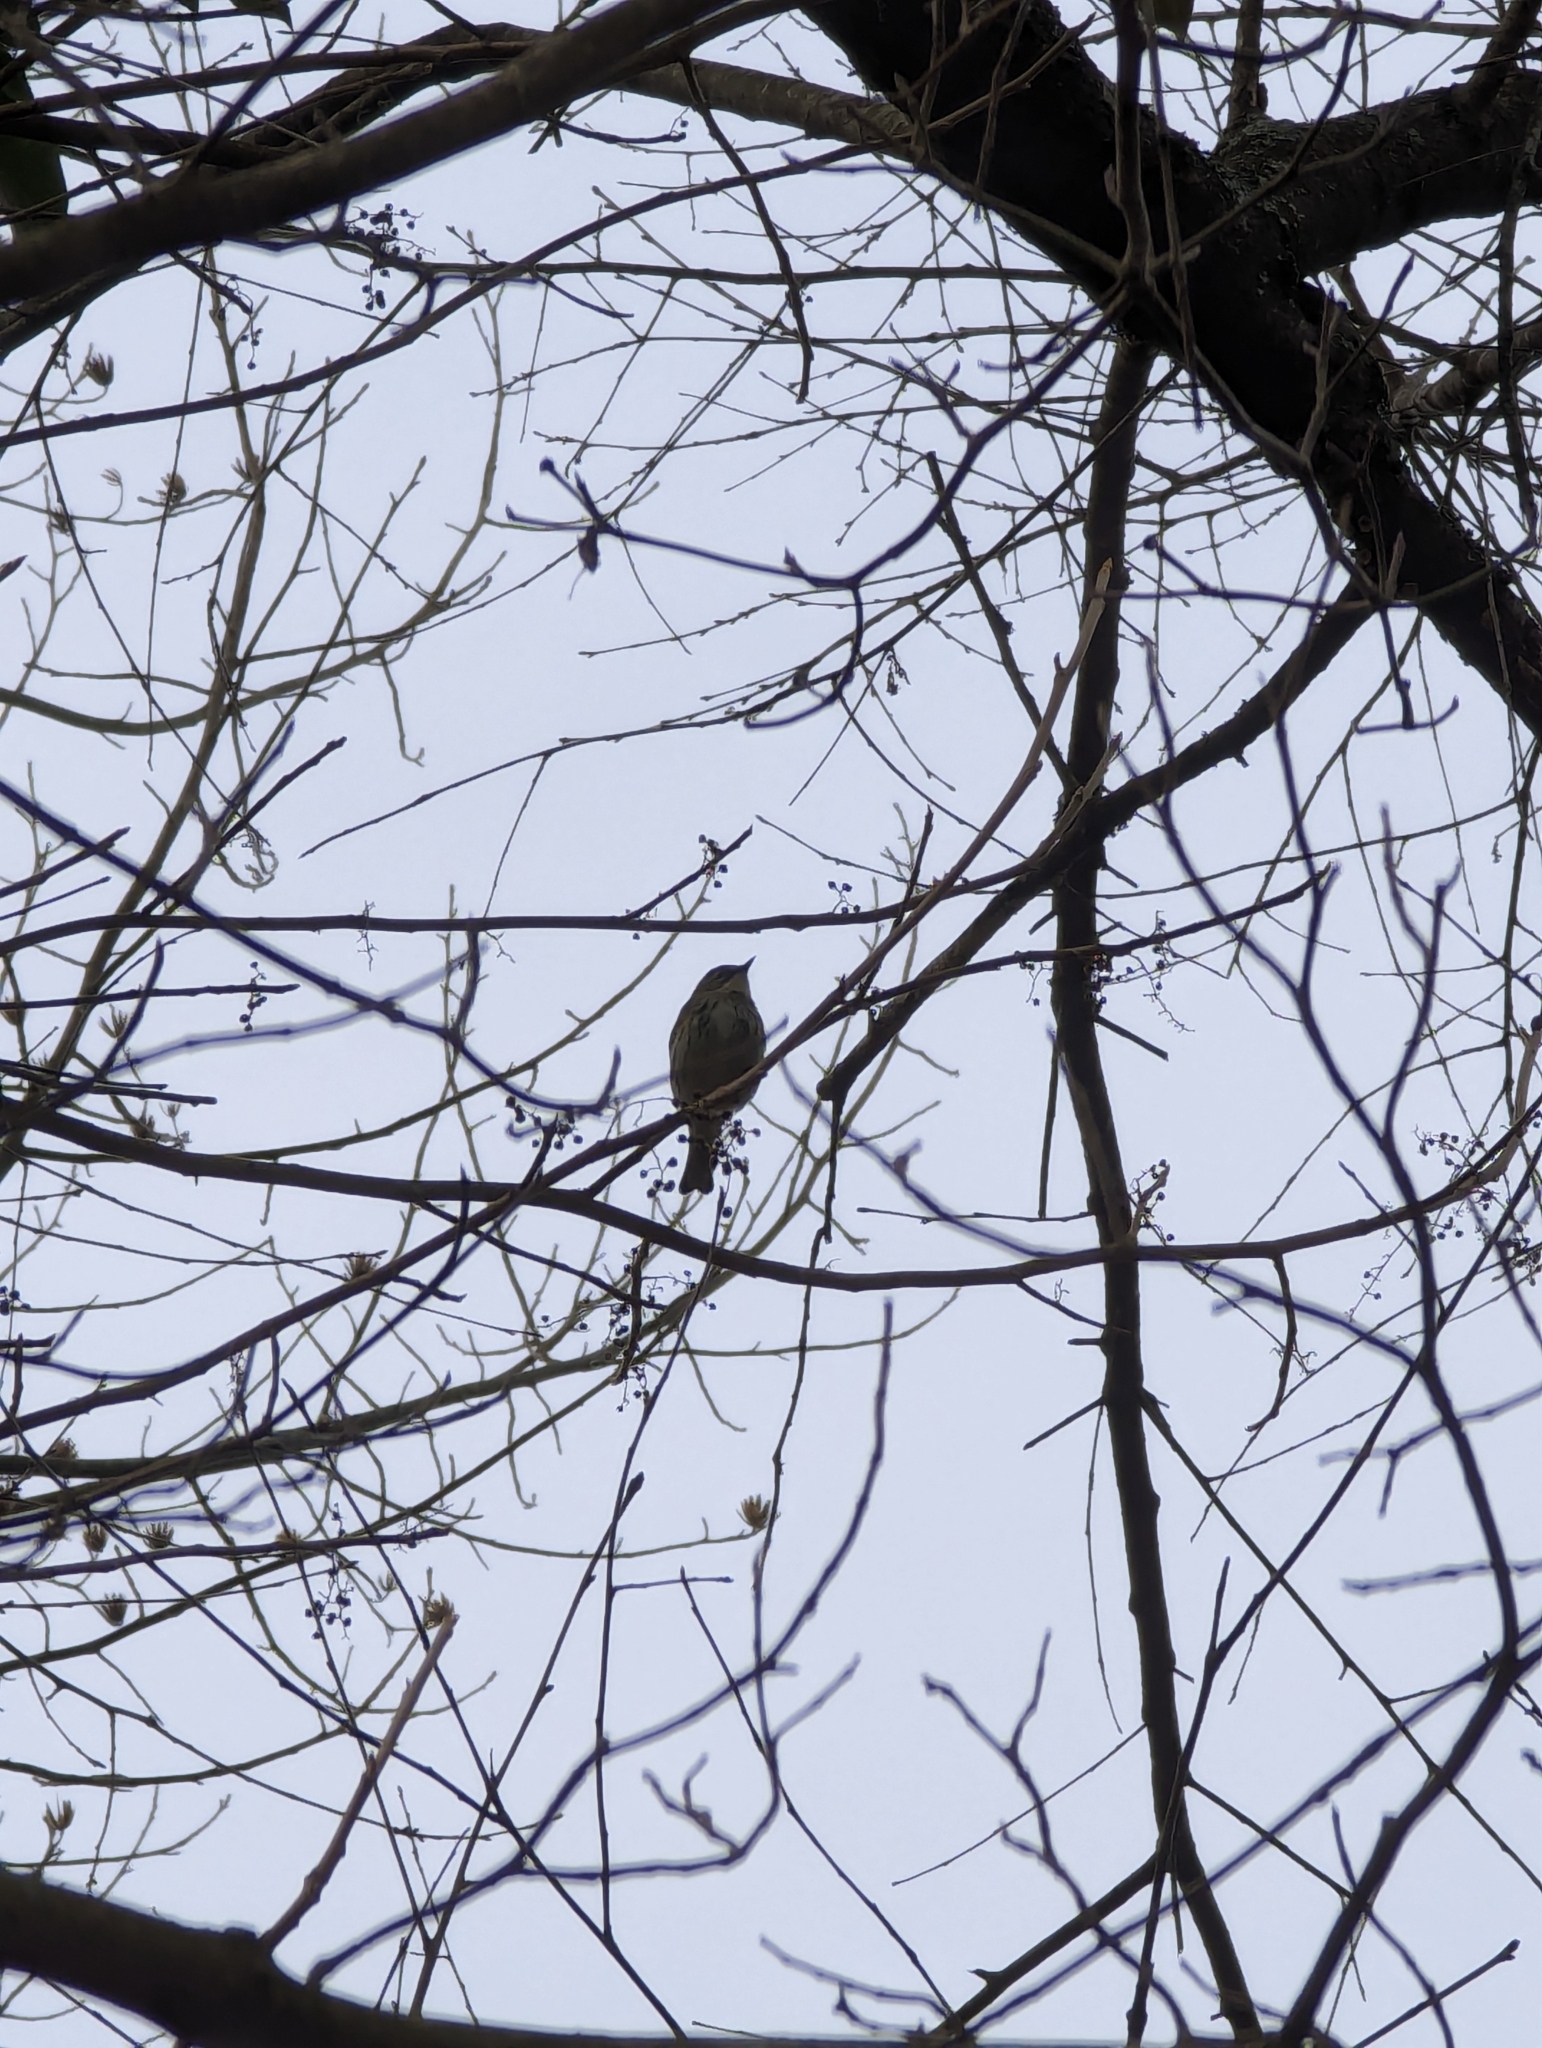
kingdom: Animalia
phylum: Chordata
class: Aves
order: Passeriformes
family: Parulidae
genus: Setophaga
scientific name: Setophaga coronata
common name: Myrtle warbler
